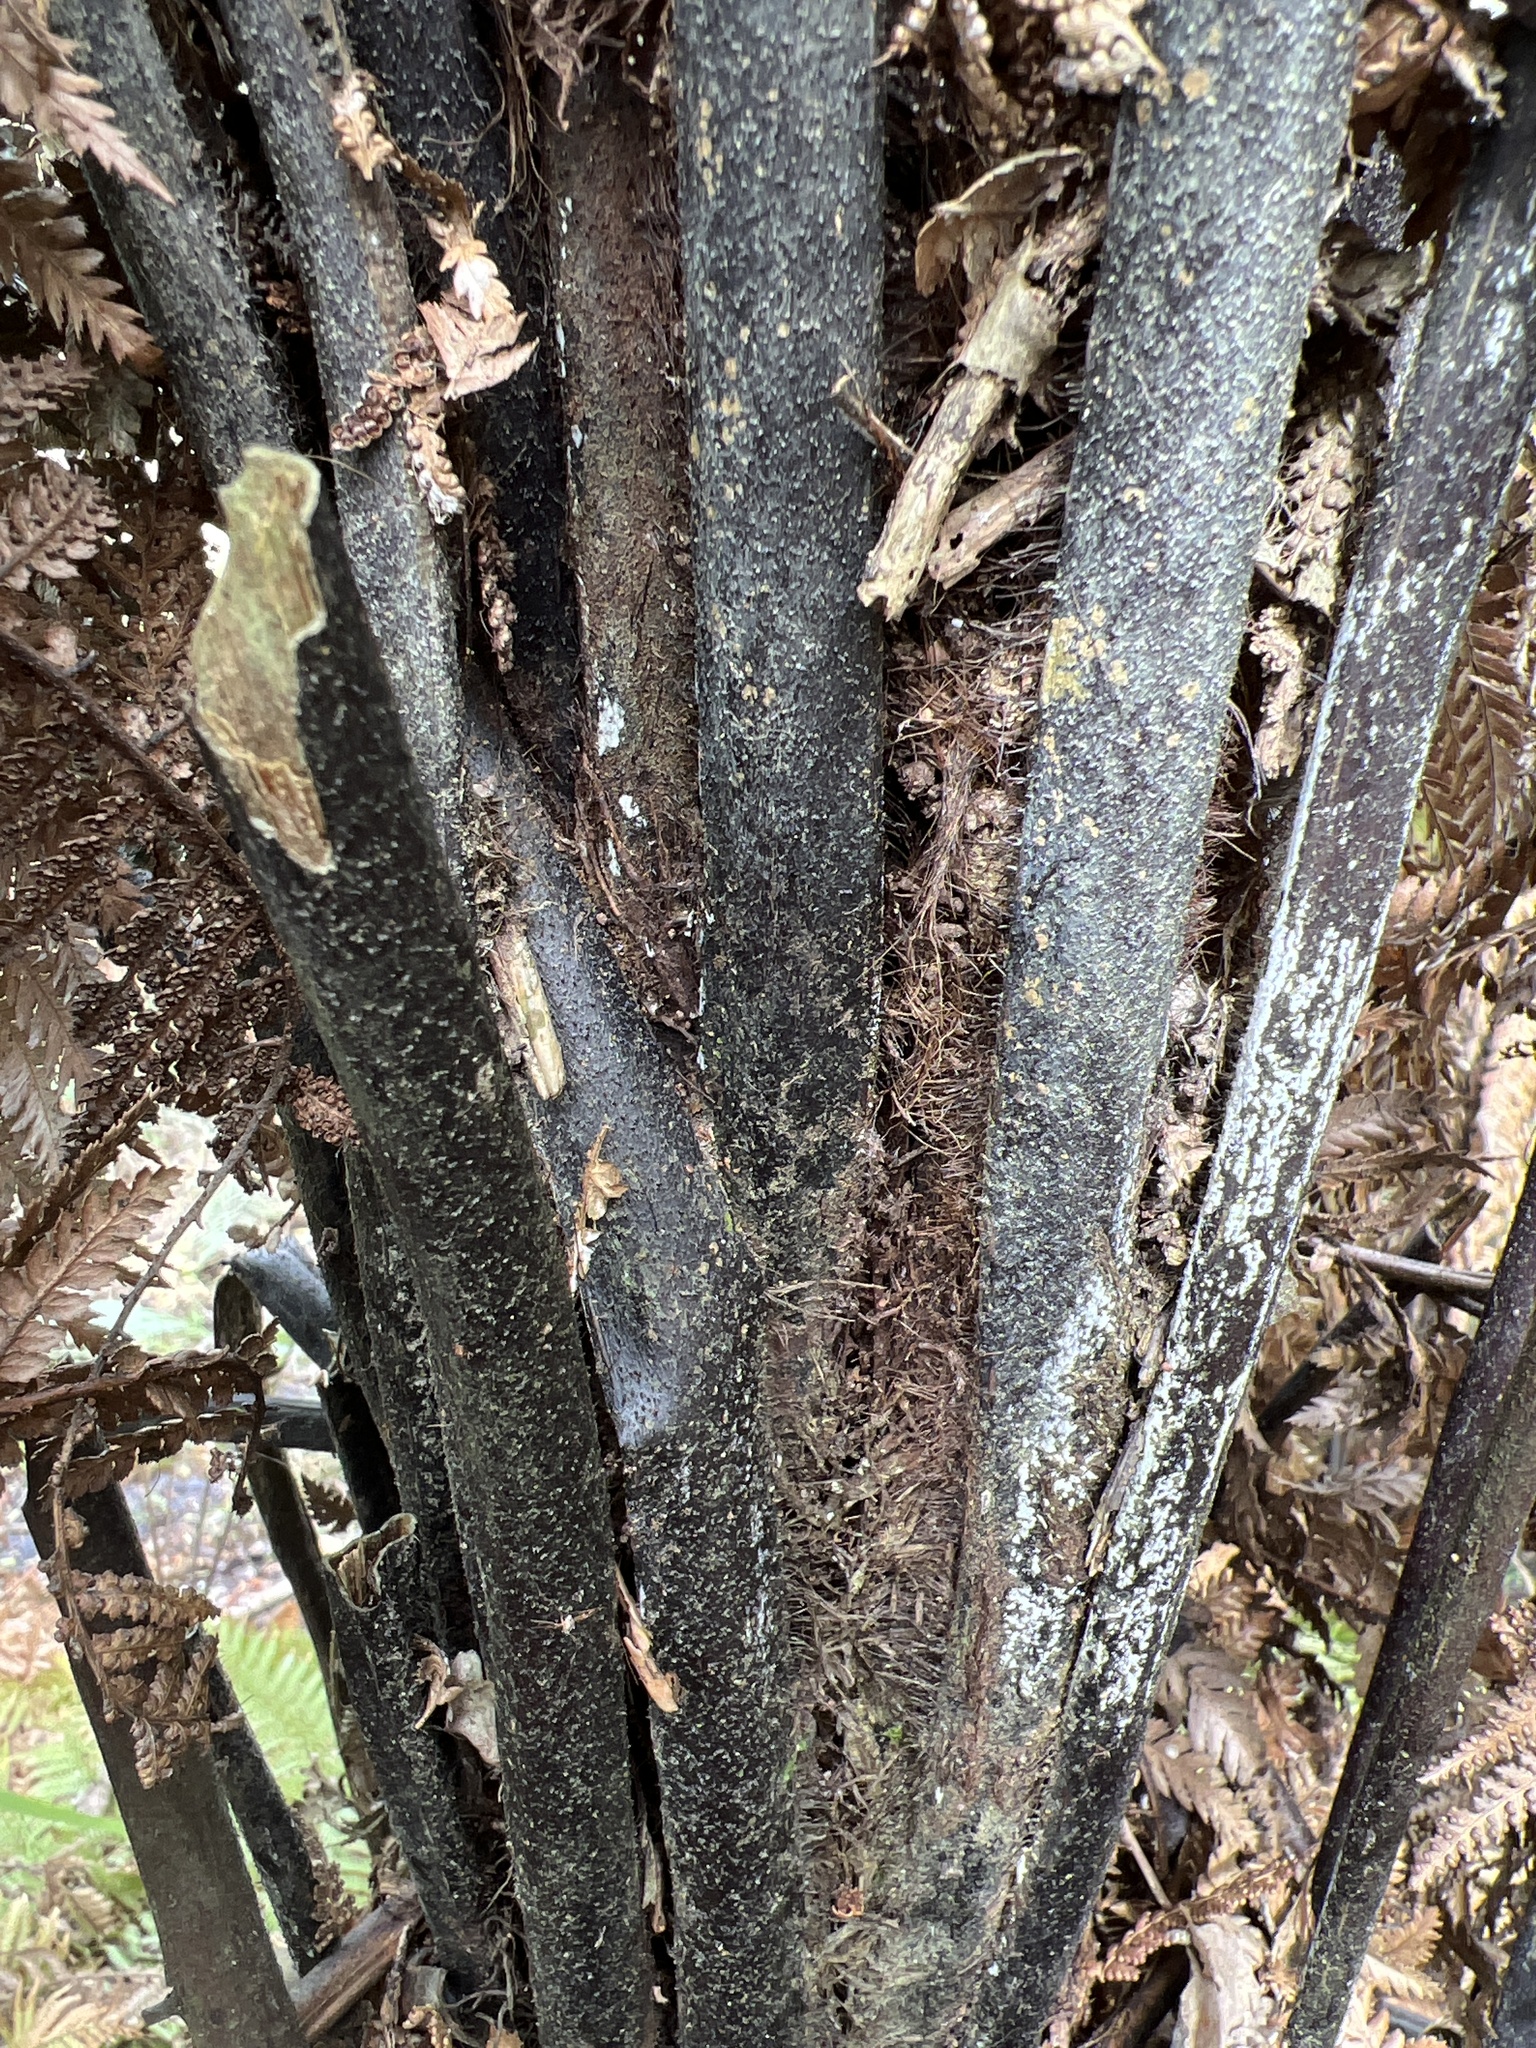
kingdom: Plantae
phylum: Tracheophyta
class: Polypodiopsida
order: Cyatheales
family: Dicksoniaceae
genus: Dicksonia
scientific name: Dicksonia squarrosa
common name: Hard treefern
